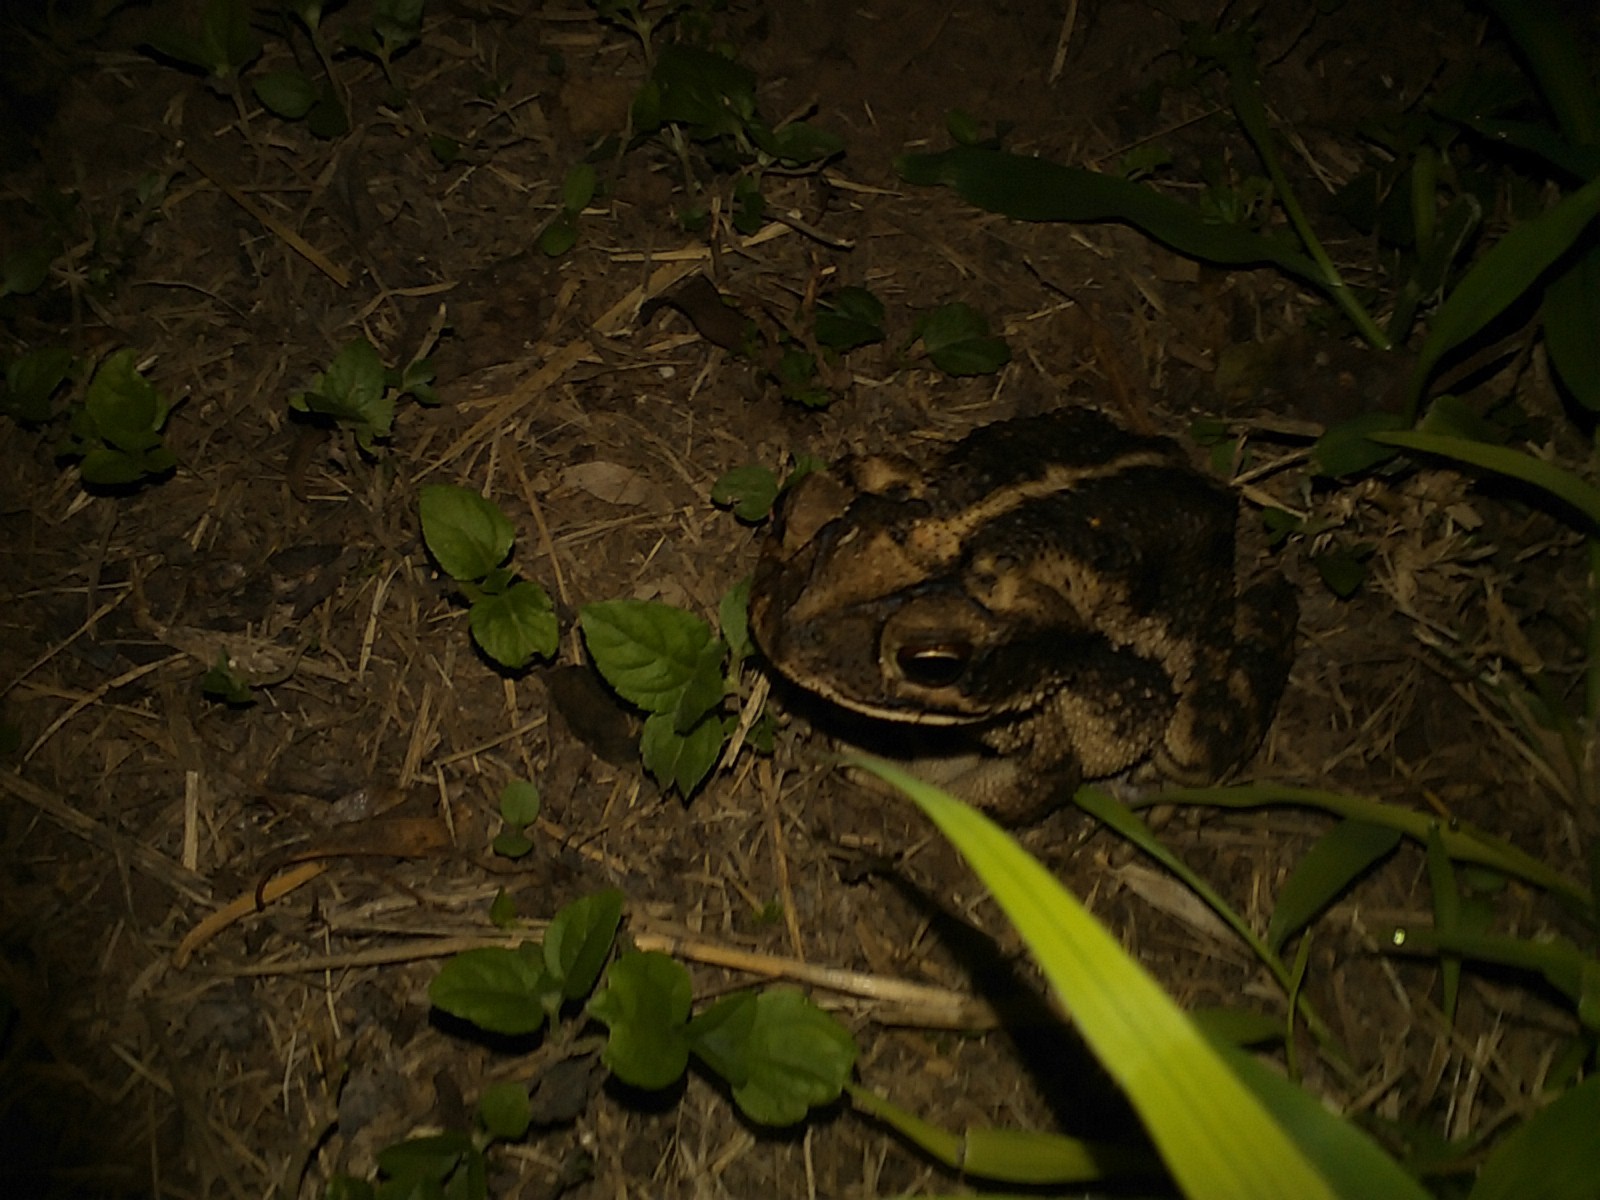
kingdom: Animalia
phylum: Chordata
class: Amphibia
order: Anura
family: Bufonidae
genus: Incilius
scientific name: Incilius nebulifer
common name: Gulf coast toad
